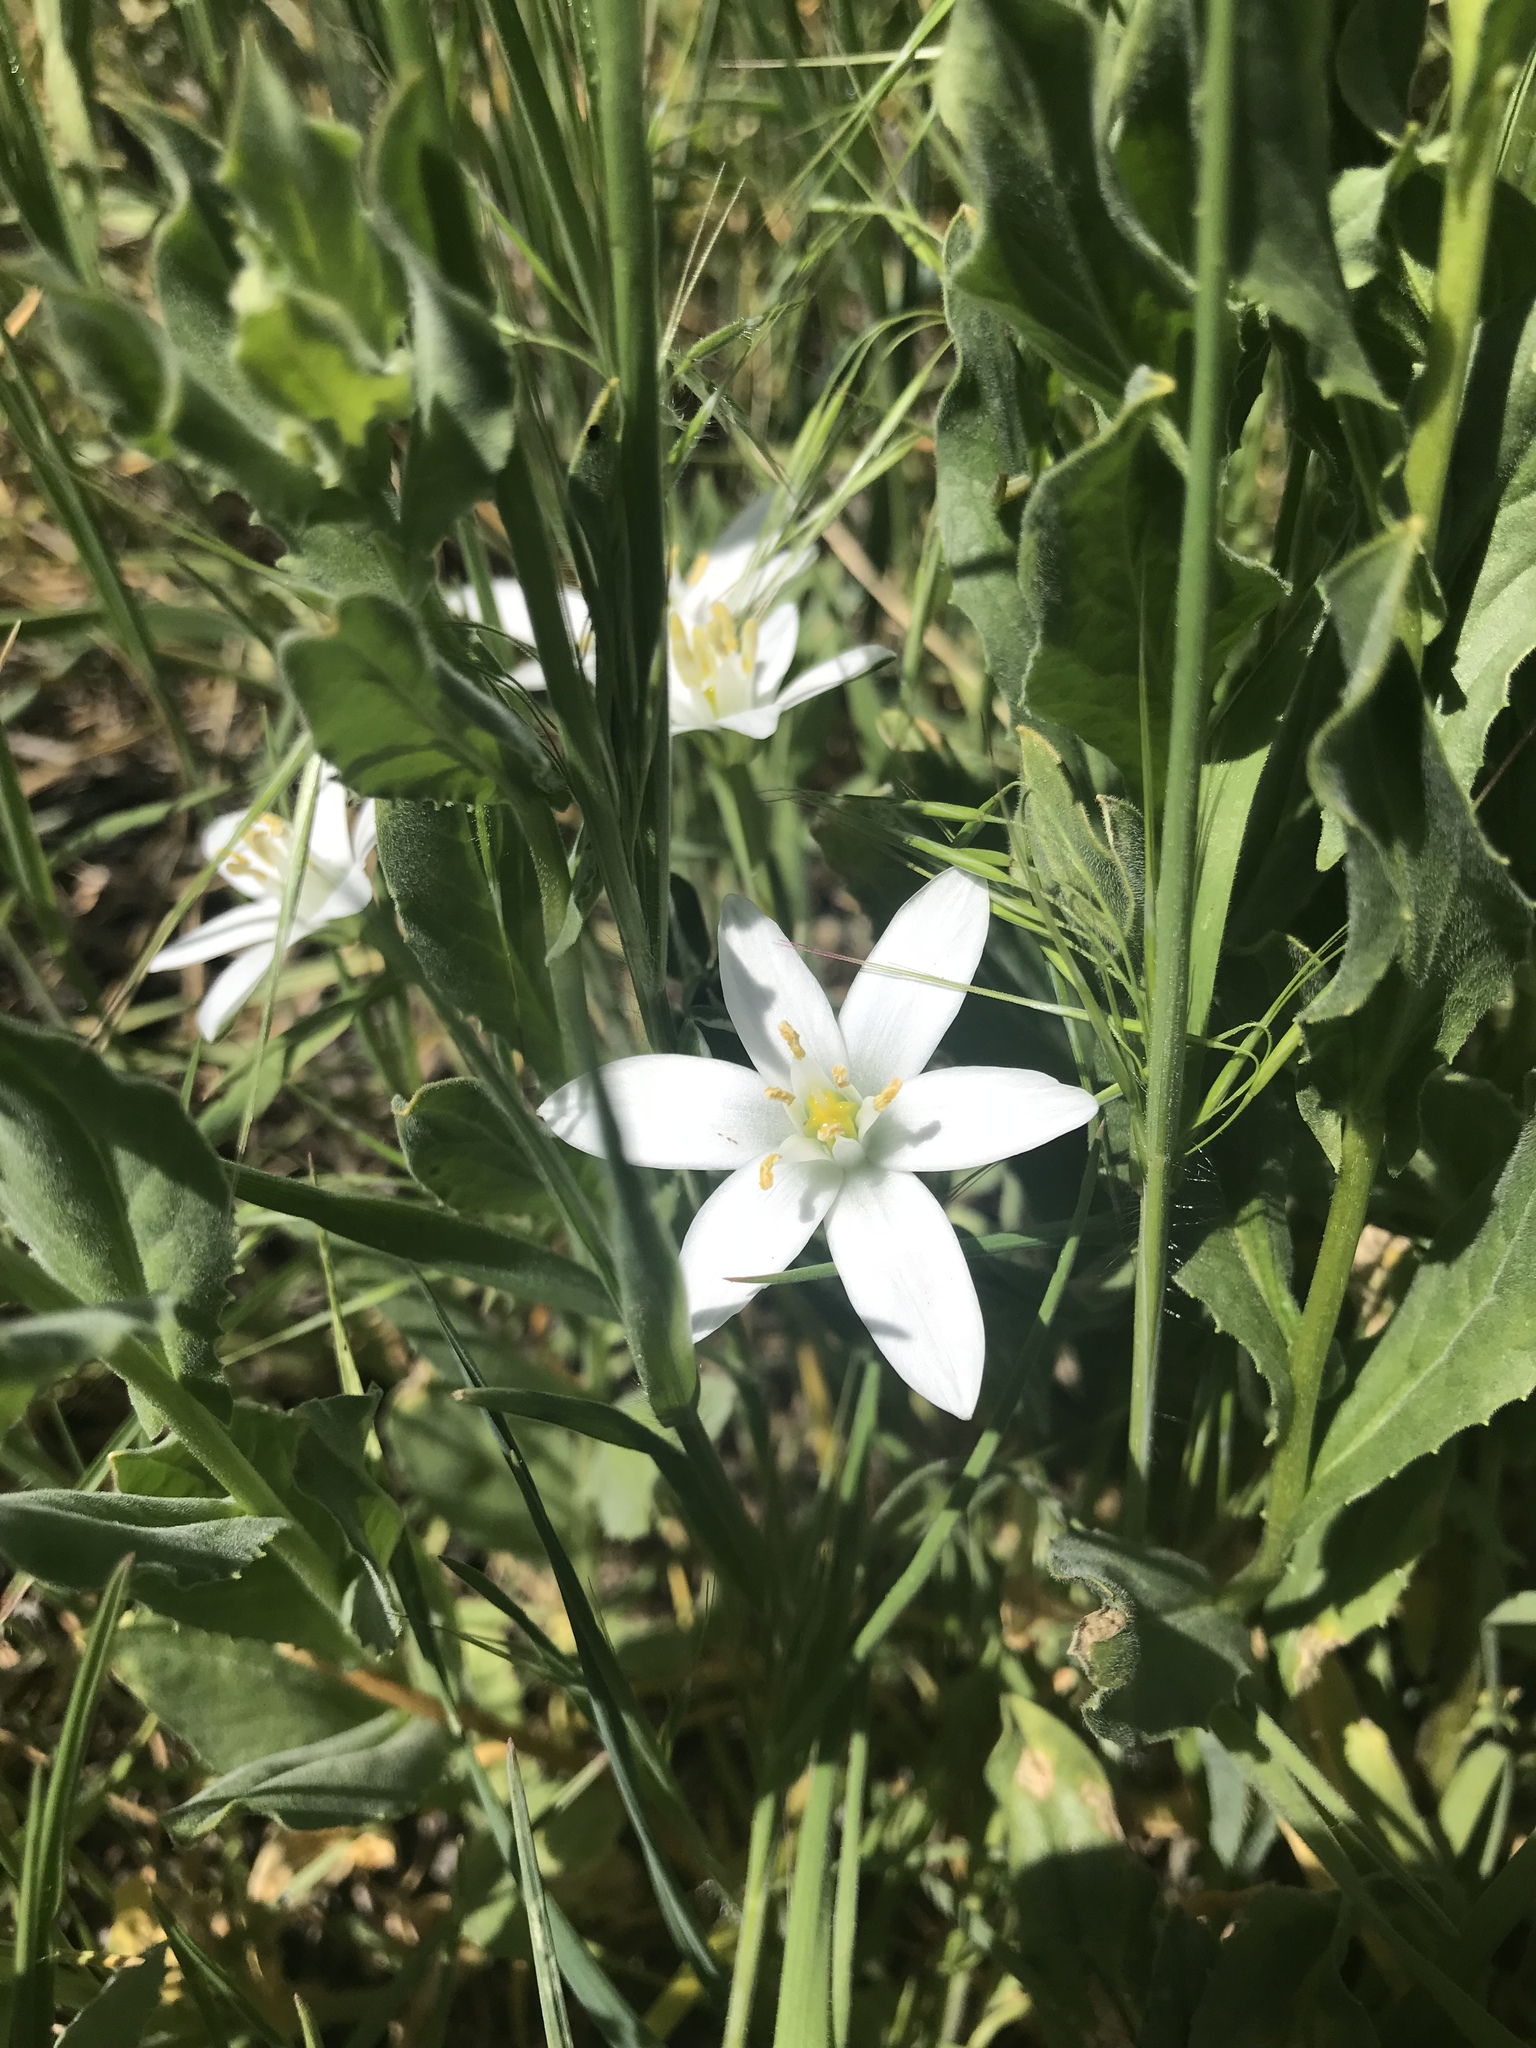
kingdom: Plantae
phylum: Tracheophyta
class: Liliopsida
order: Asparagales
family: Asparagaceae
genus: Ornithogalum
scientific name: Ornithogalum umbellatum
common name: Garden star-of-bethlehem
